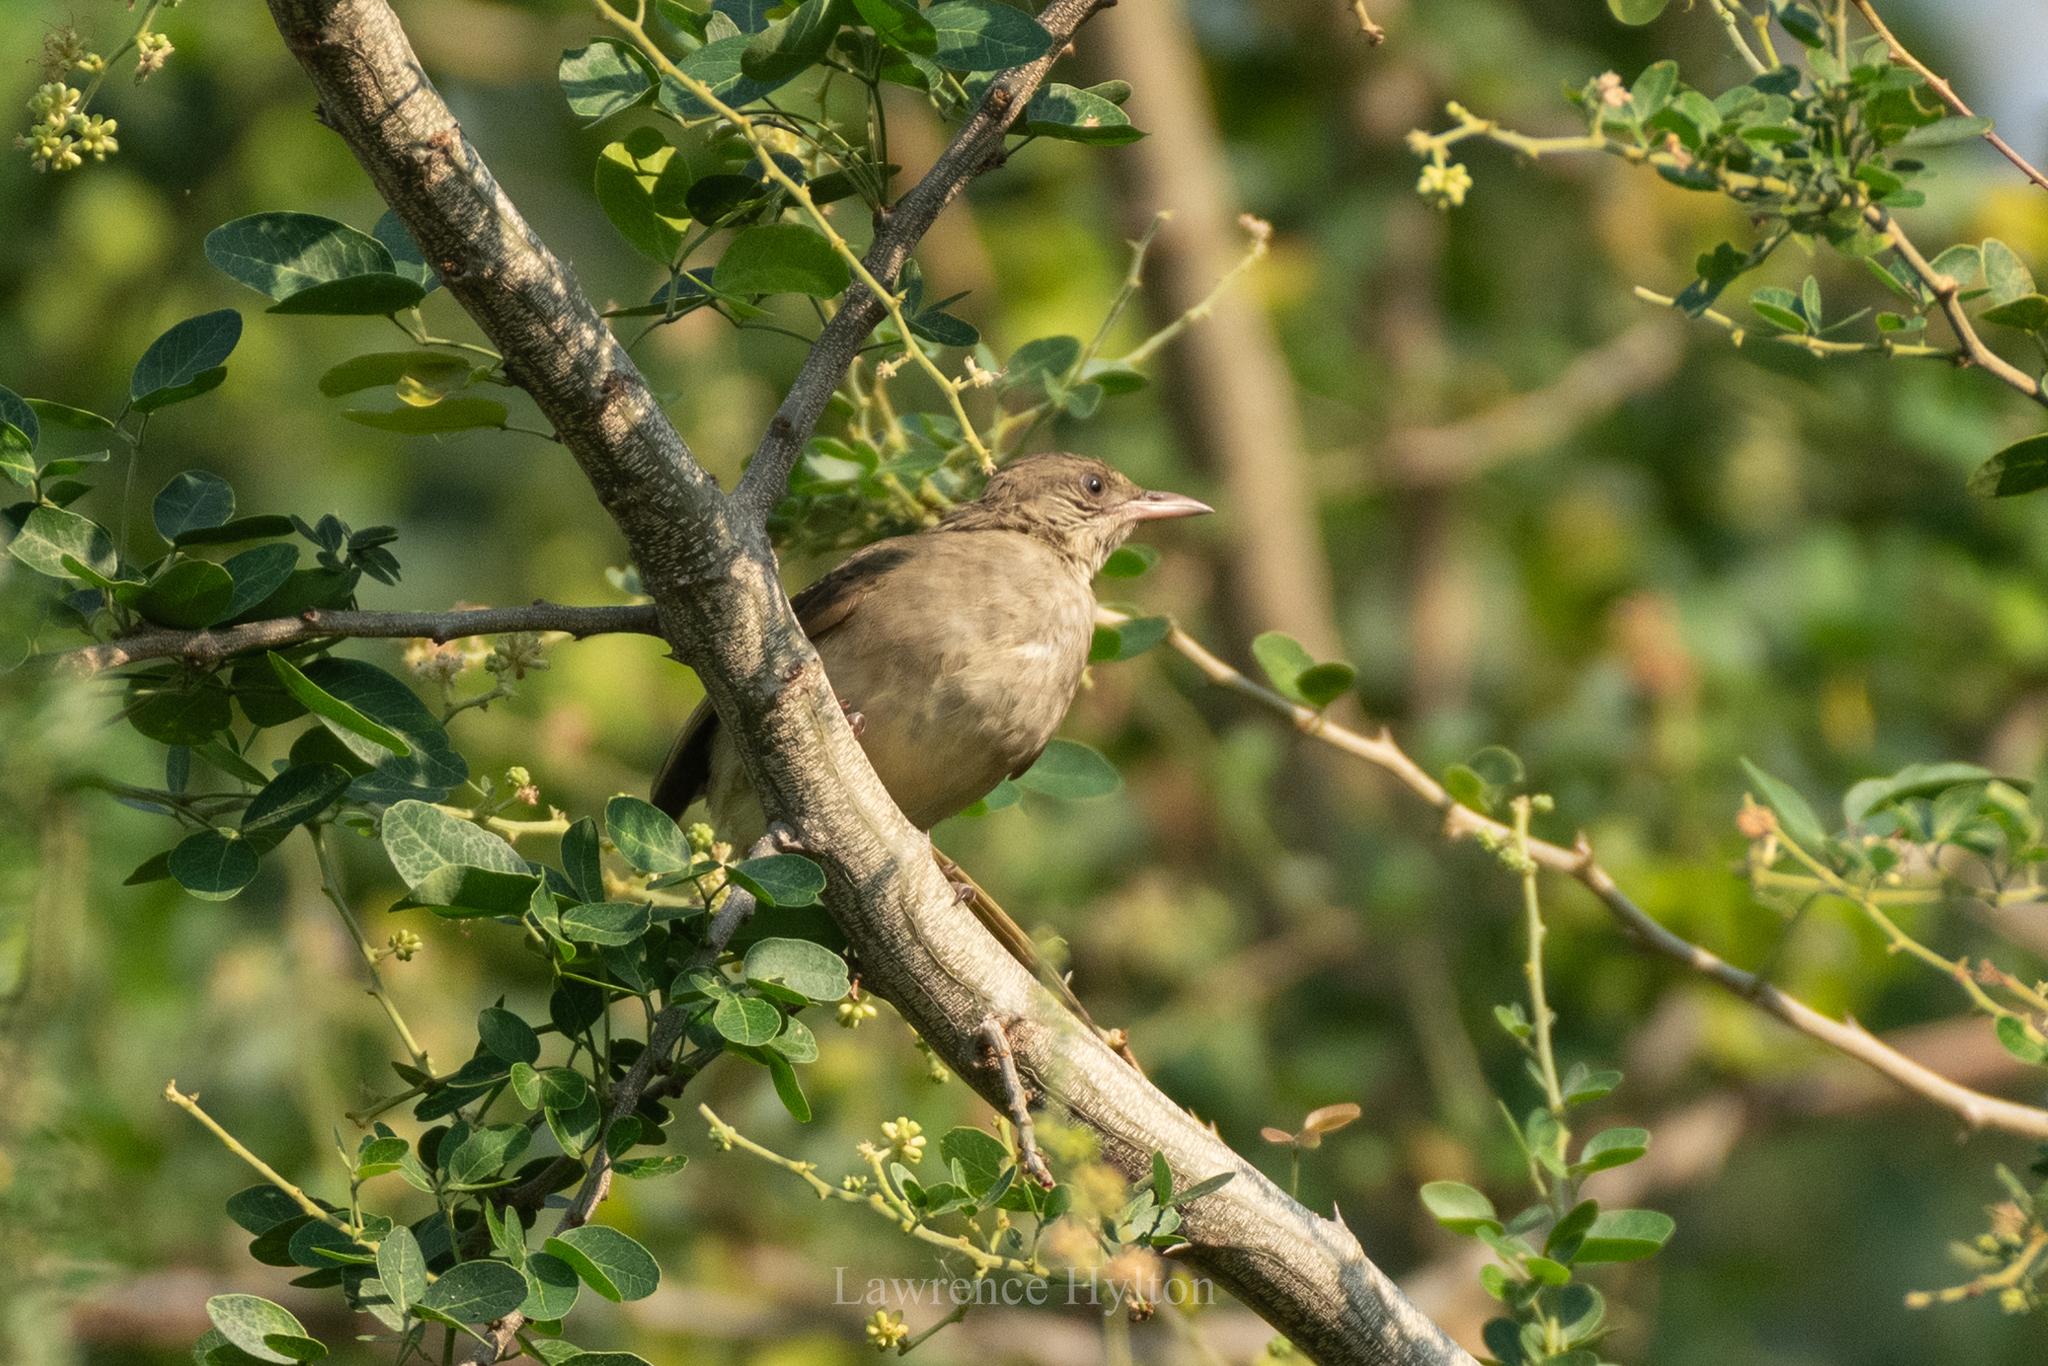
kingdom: Animalia
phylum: Chordata
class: Aves
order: Passeriformes
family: Pycnonotidae
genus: Pycnonotus
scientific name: Pycnonotus blanfordi
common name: Streak-eared bulbul
